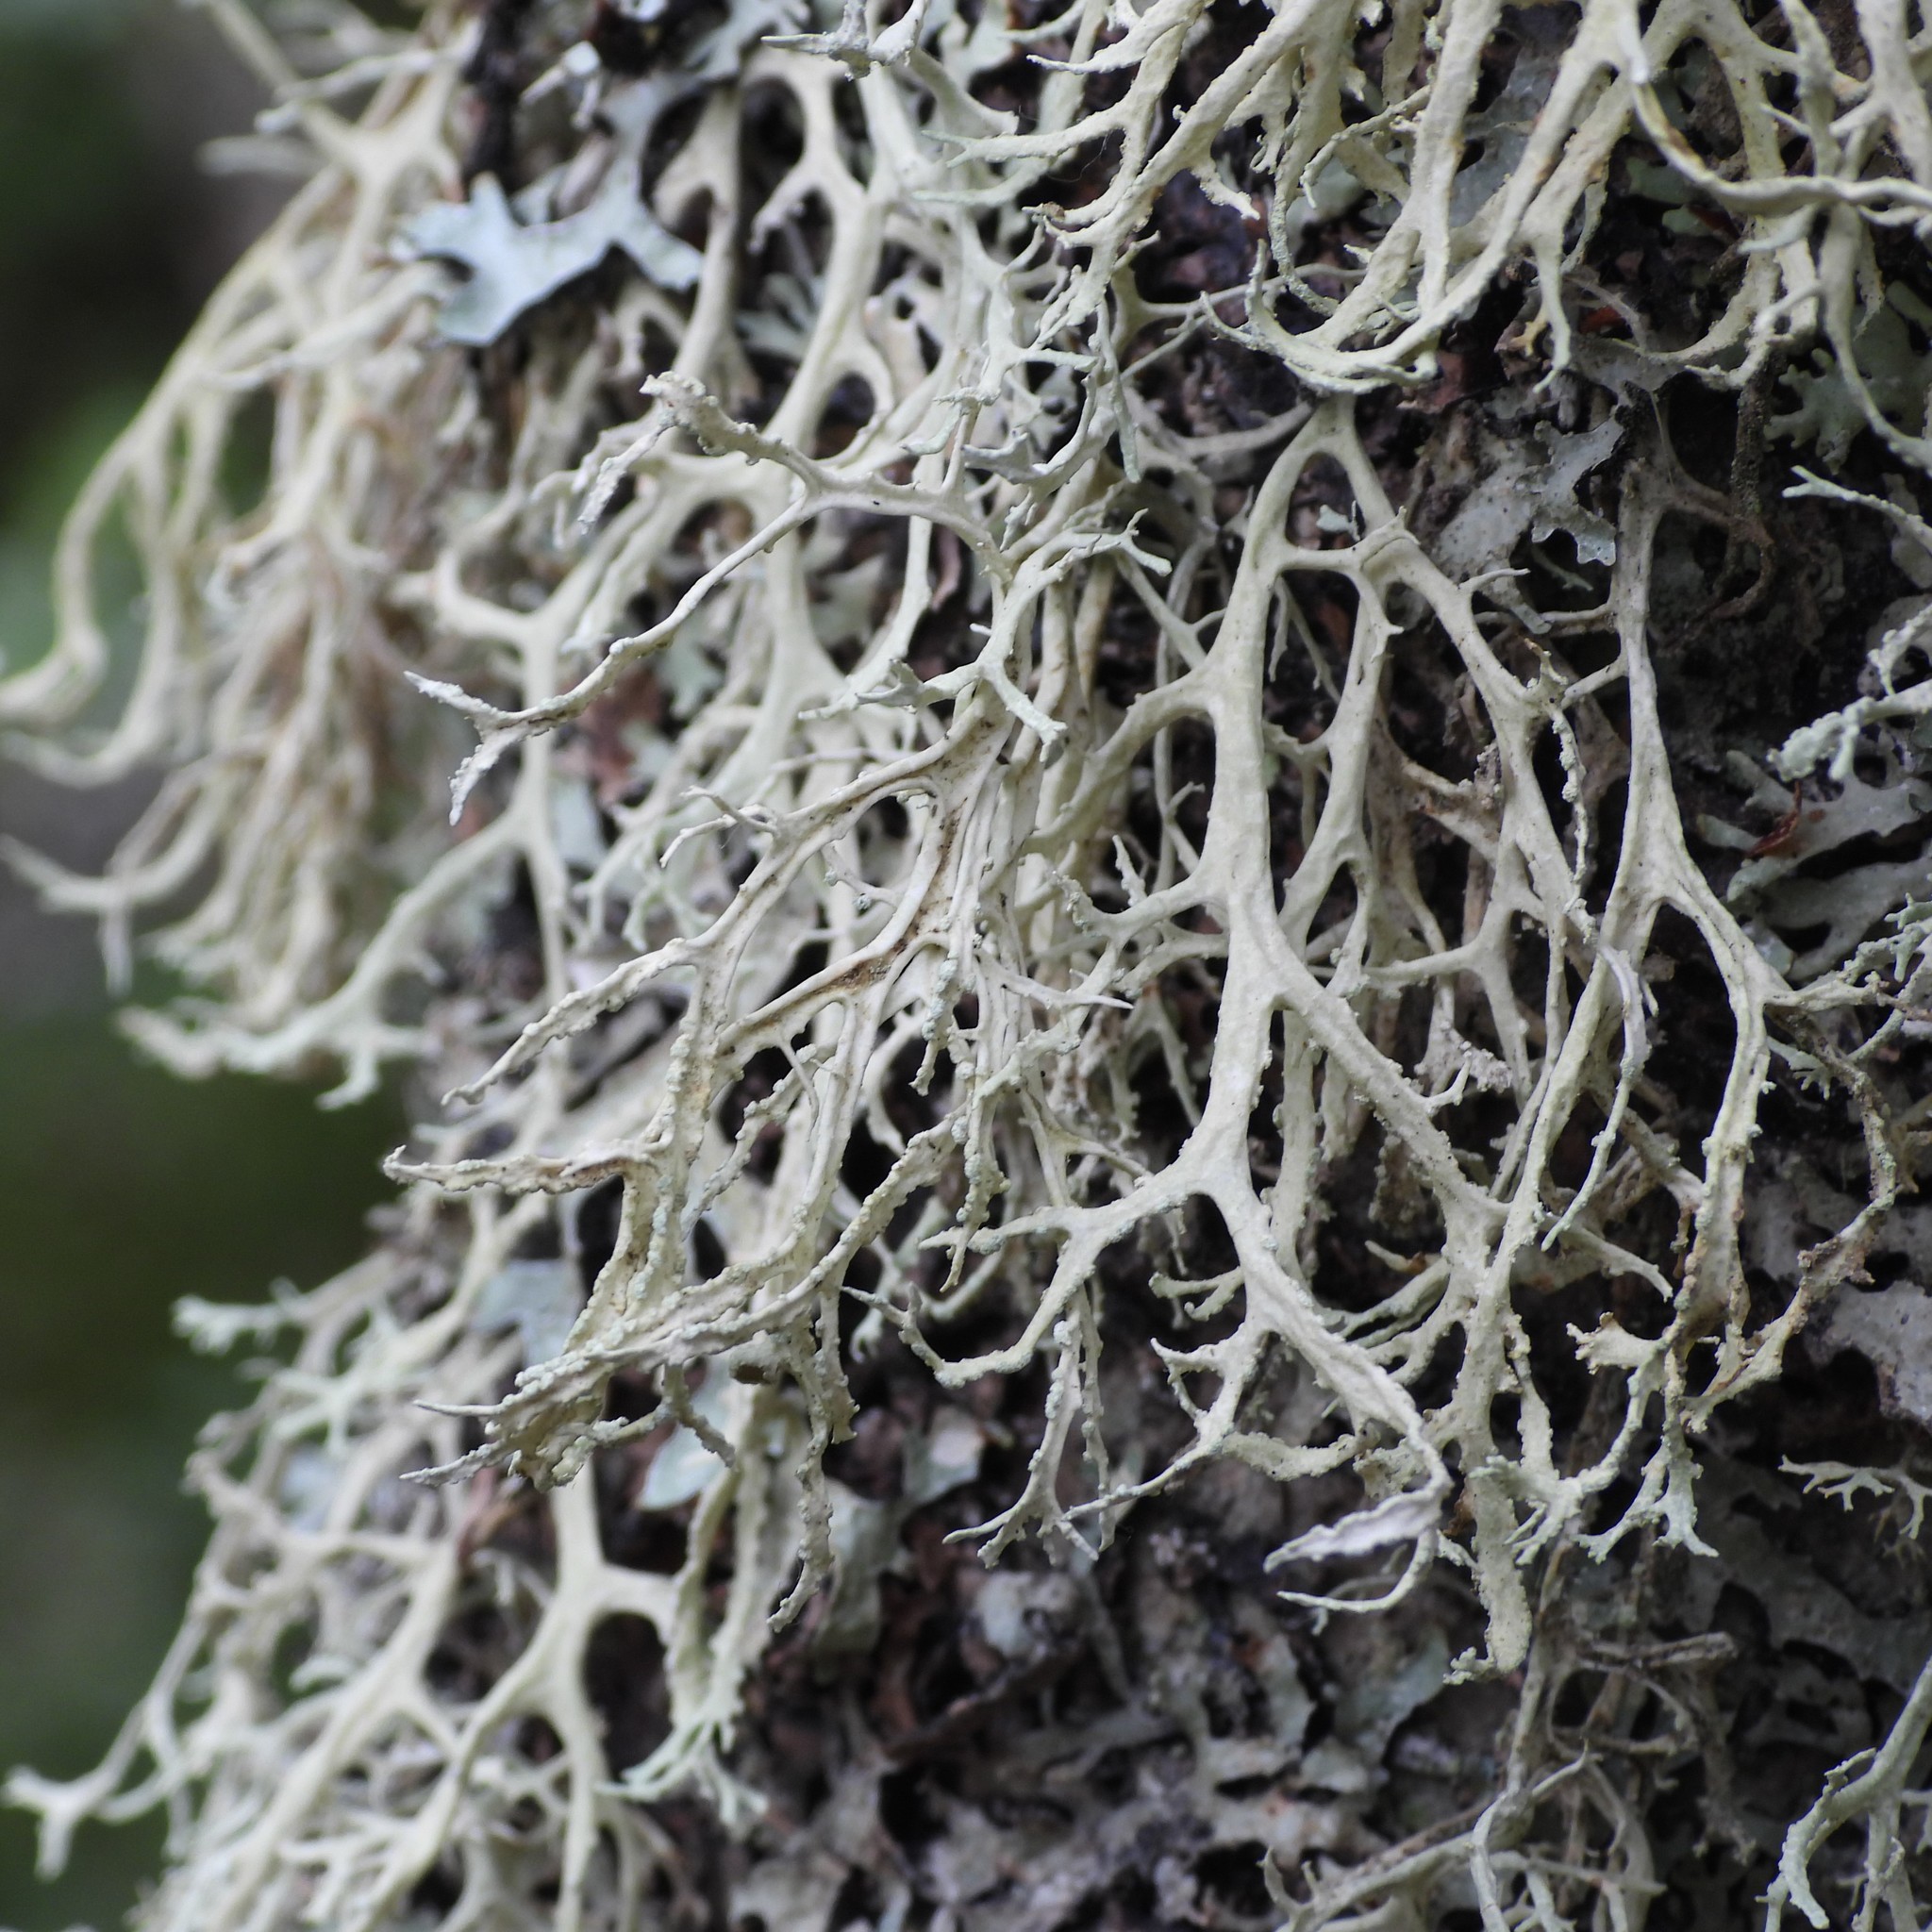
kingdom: Fungi
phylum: Ascomycota
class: Lecanoromycetes
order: Lecanorales
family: Parmeliaceae
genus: Evernia
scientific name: Evernia prunastri
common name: Oak moss
